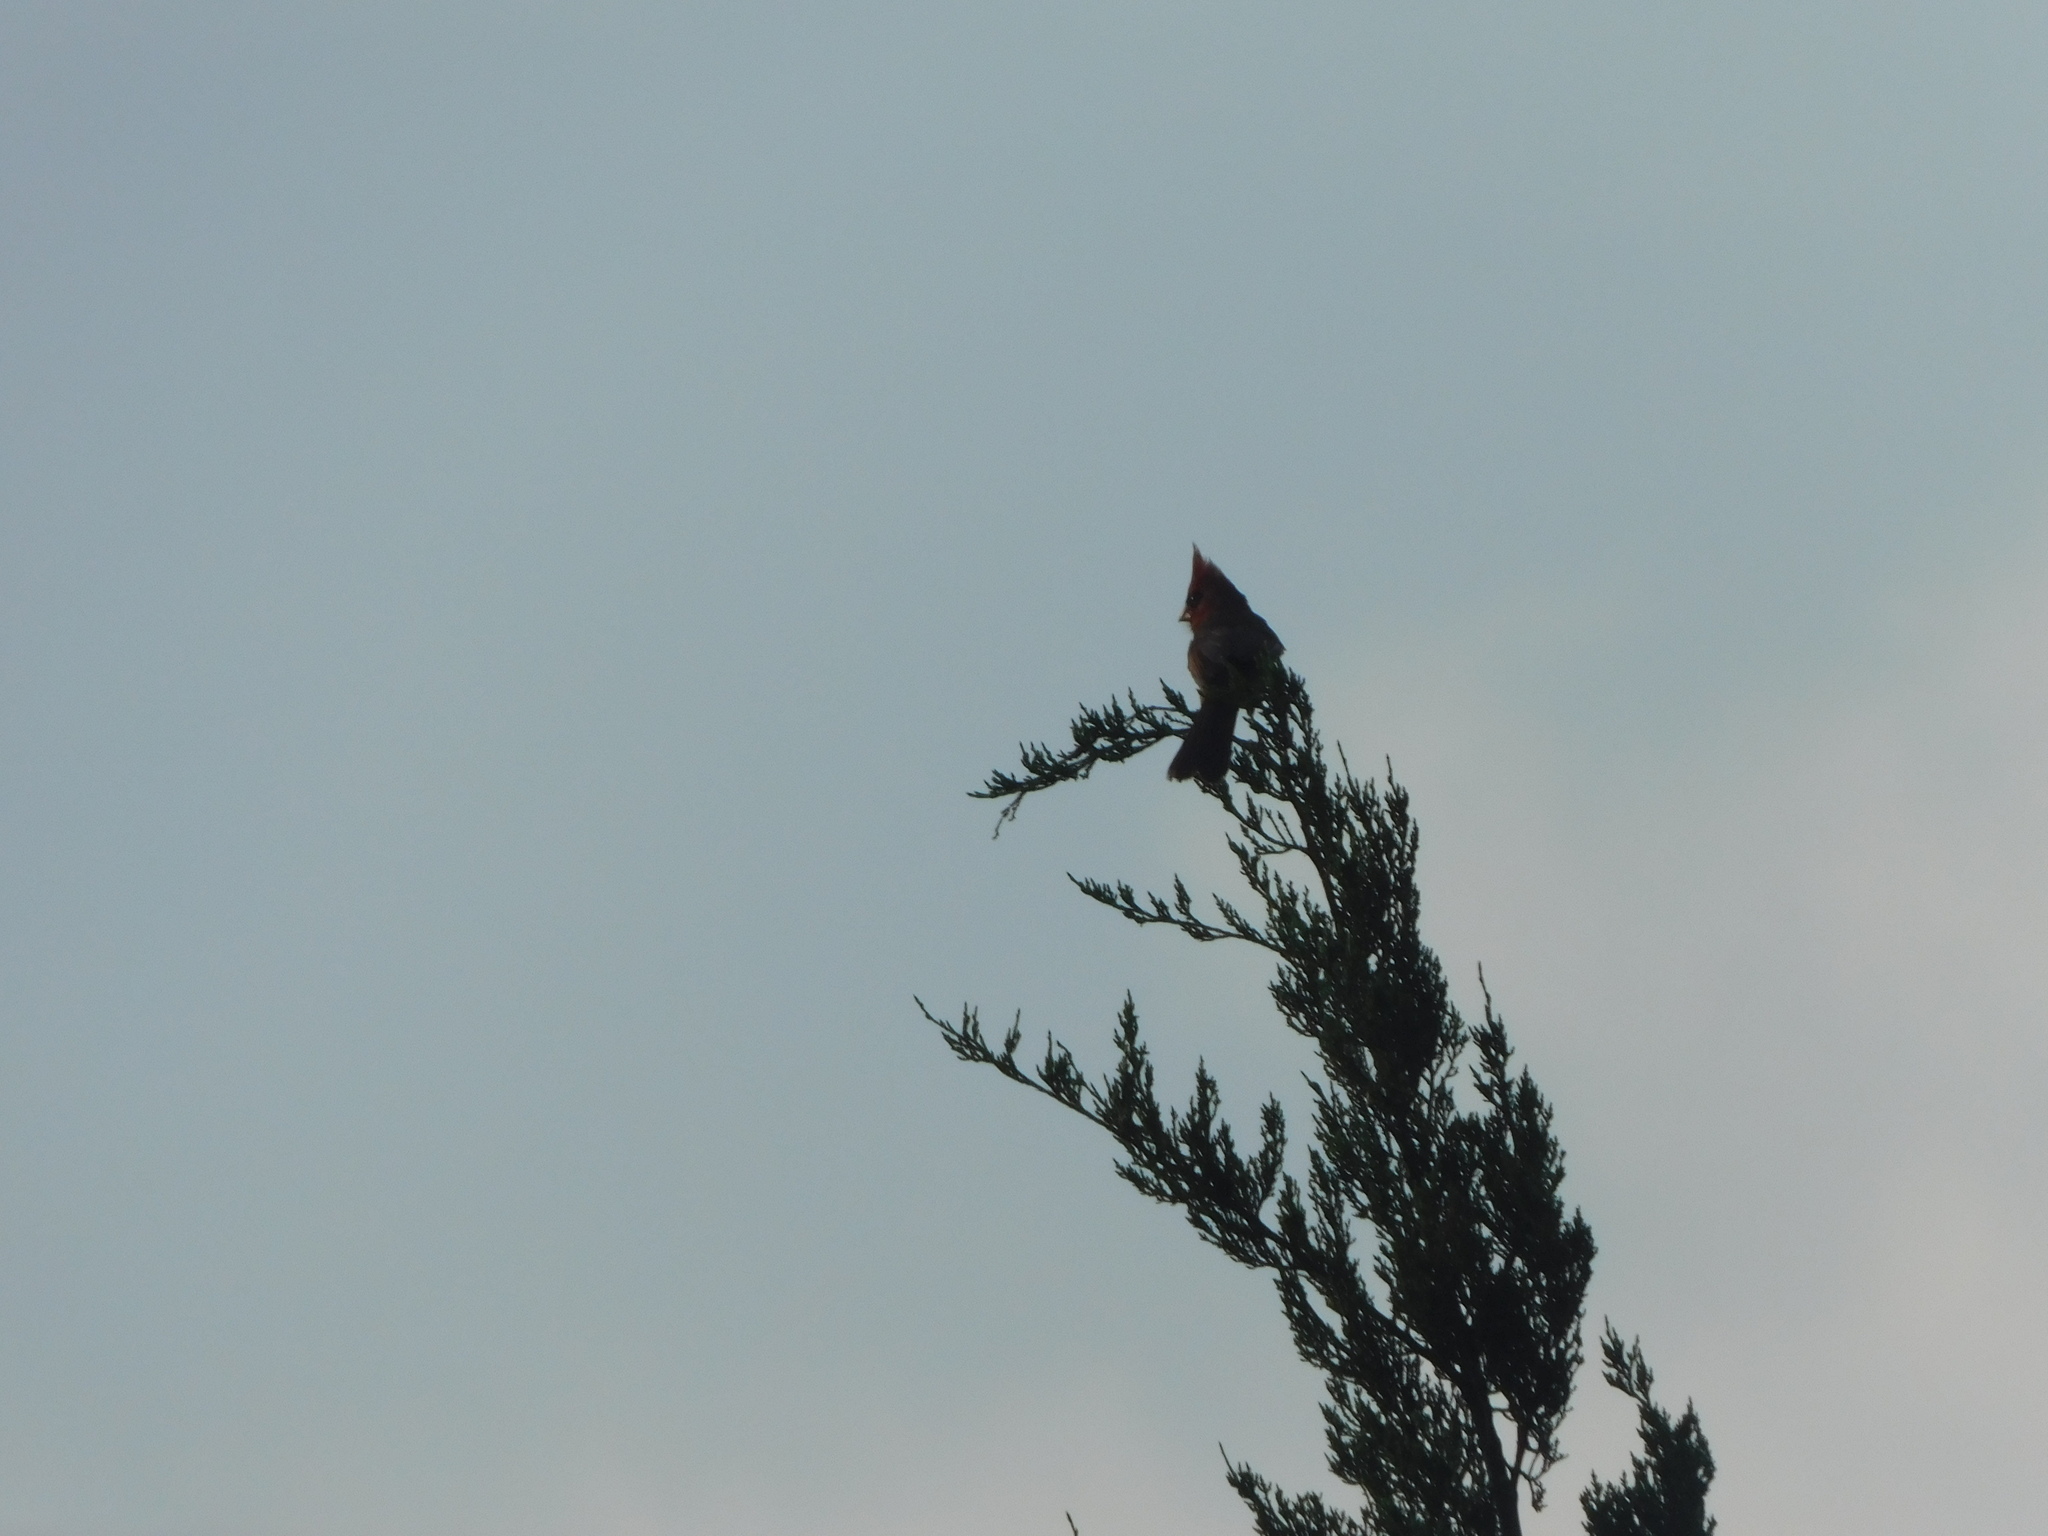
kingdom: Animalia
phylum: Chordata
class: Aves
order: Passeriformes
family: Cardinalidae
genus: Cardinalis
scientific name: Cardinalis cardinalis
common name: Northern cardinal
